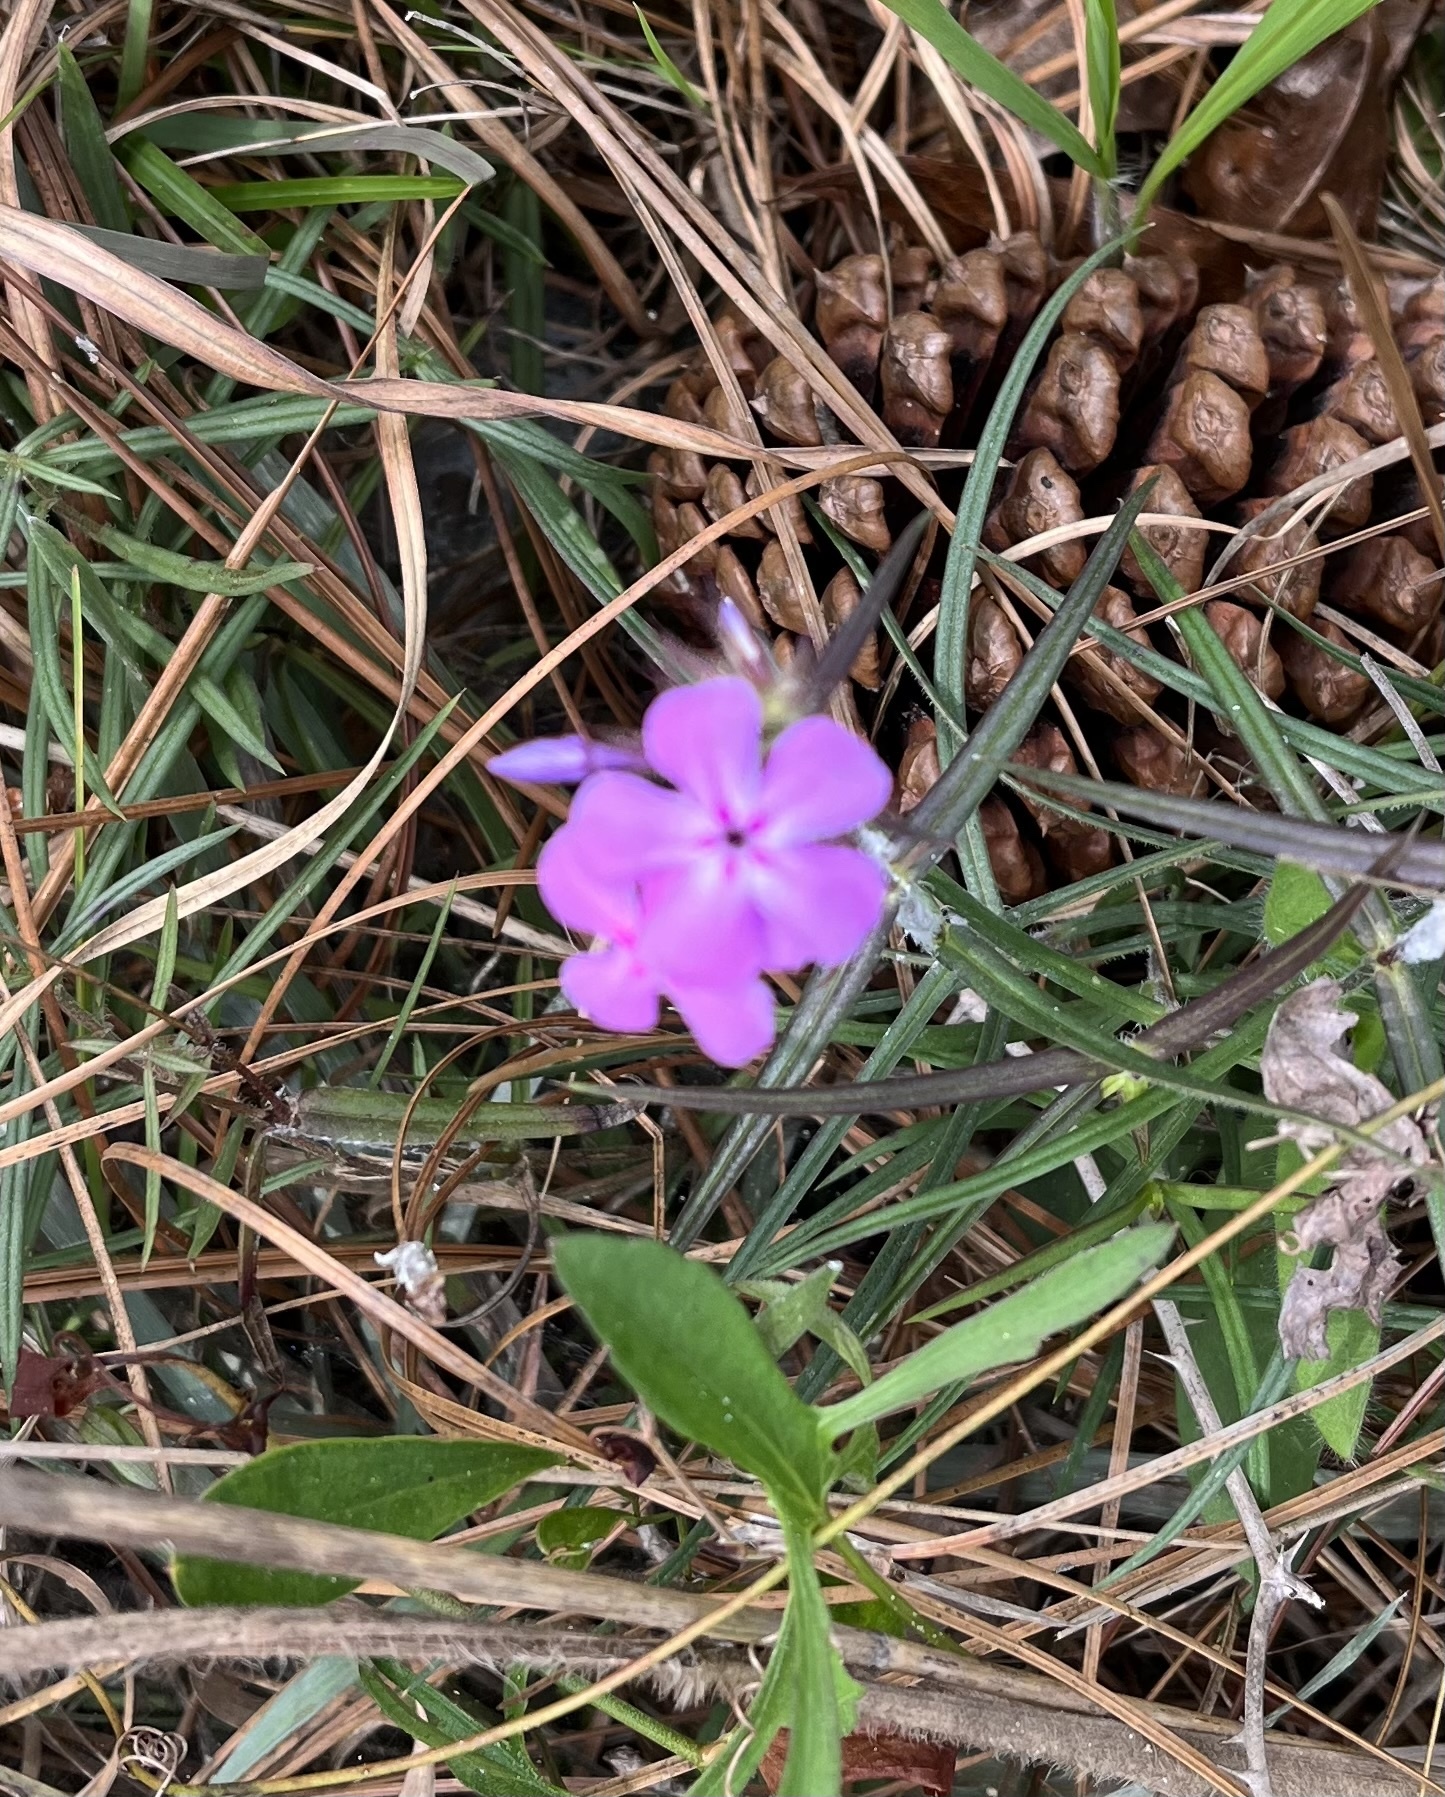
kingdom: Plantae
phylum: Tracheophyta
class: Magnoliopsida
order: Ericales
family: Polemoniaceae
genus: Phlox
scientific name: Phlox pilosa
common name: Prairie phlox
